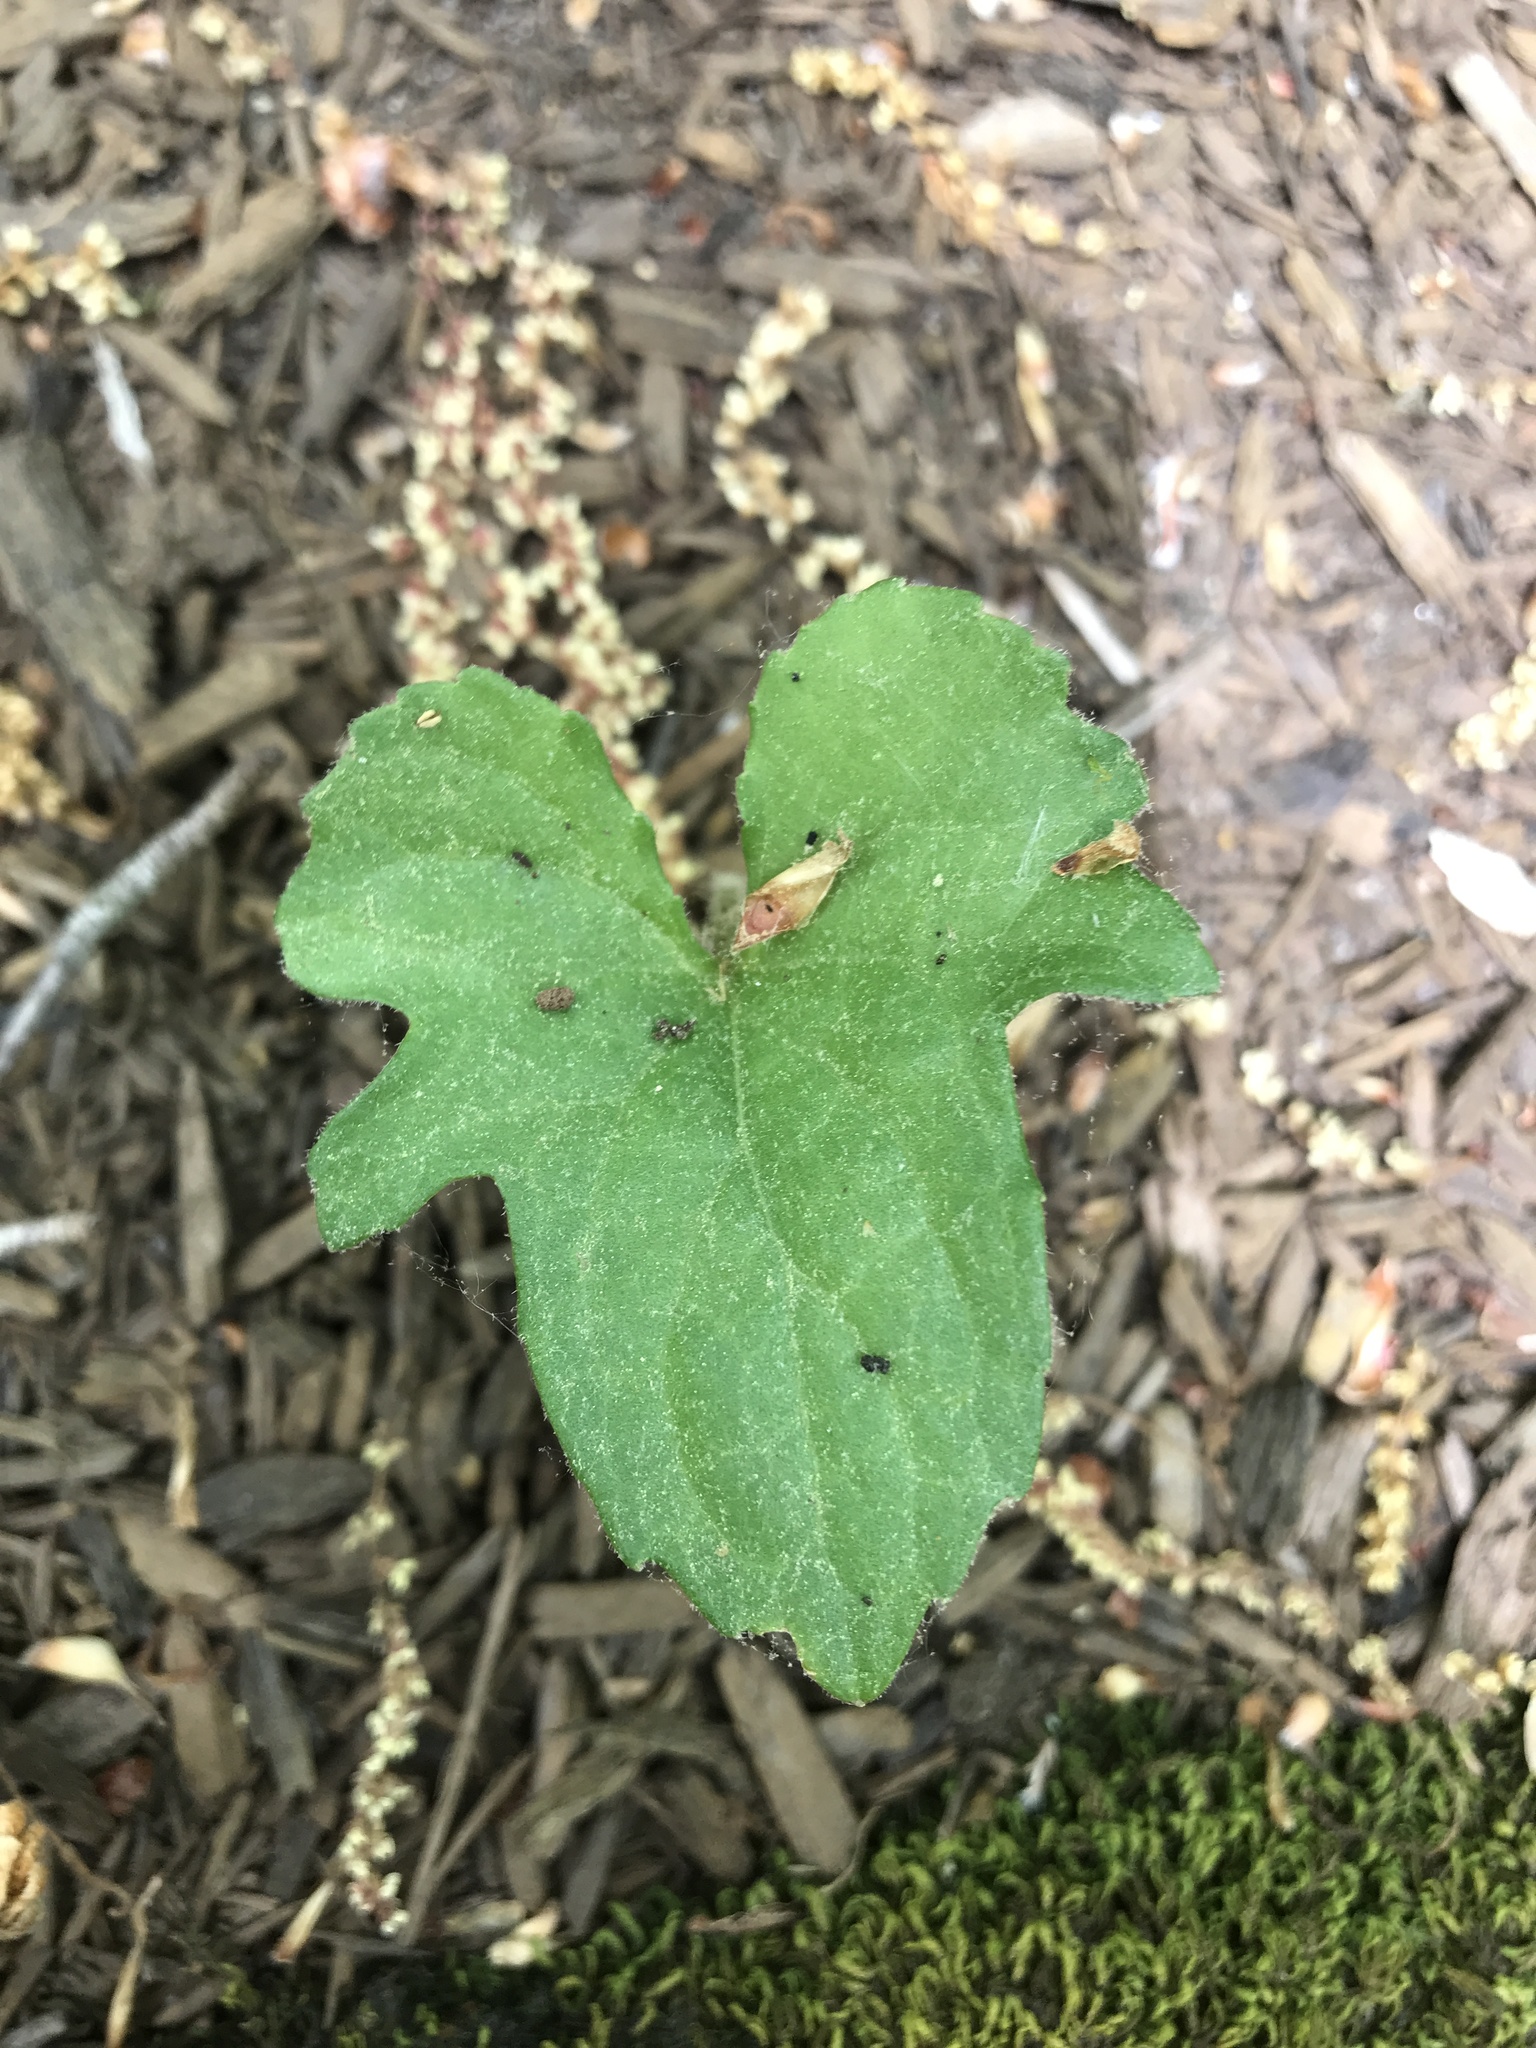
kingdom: Plantae
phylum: Tracheophyta
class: Magnoliopsida
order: Malpighiales
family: Violaceae
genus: Viola
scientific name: Viola palmata
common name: Early blue violet
